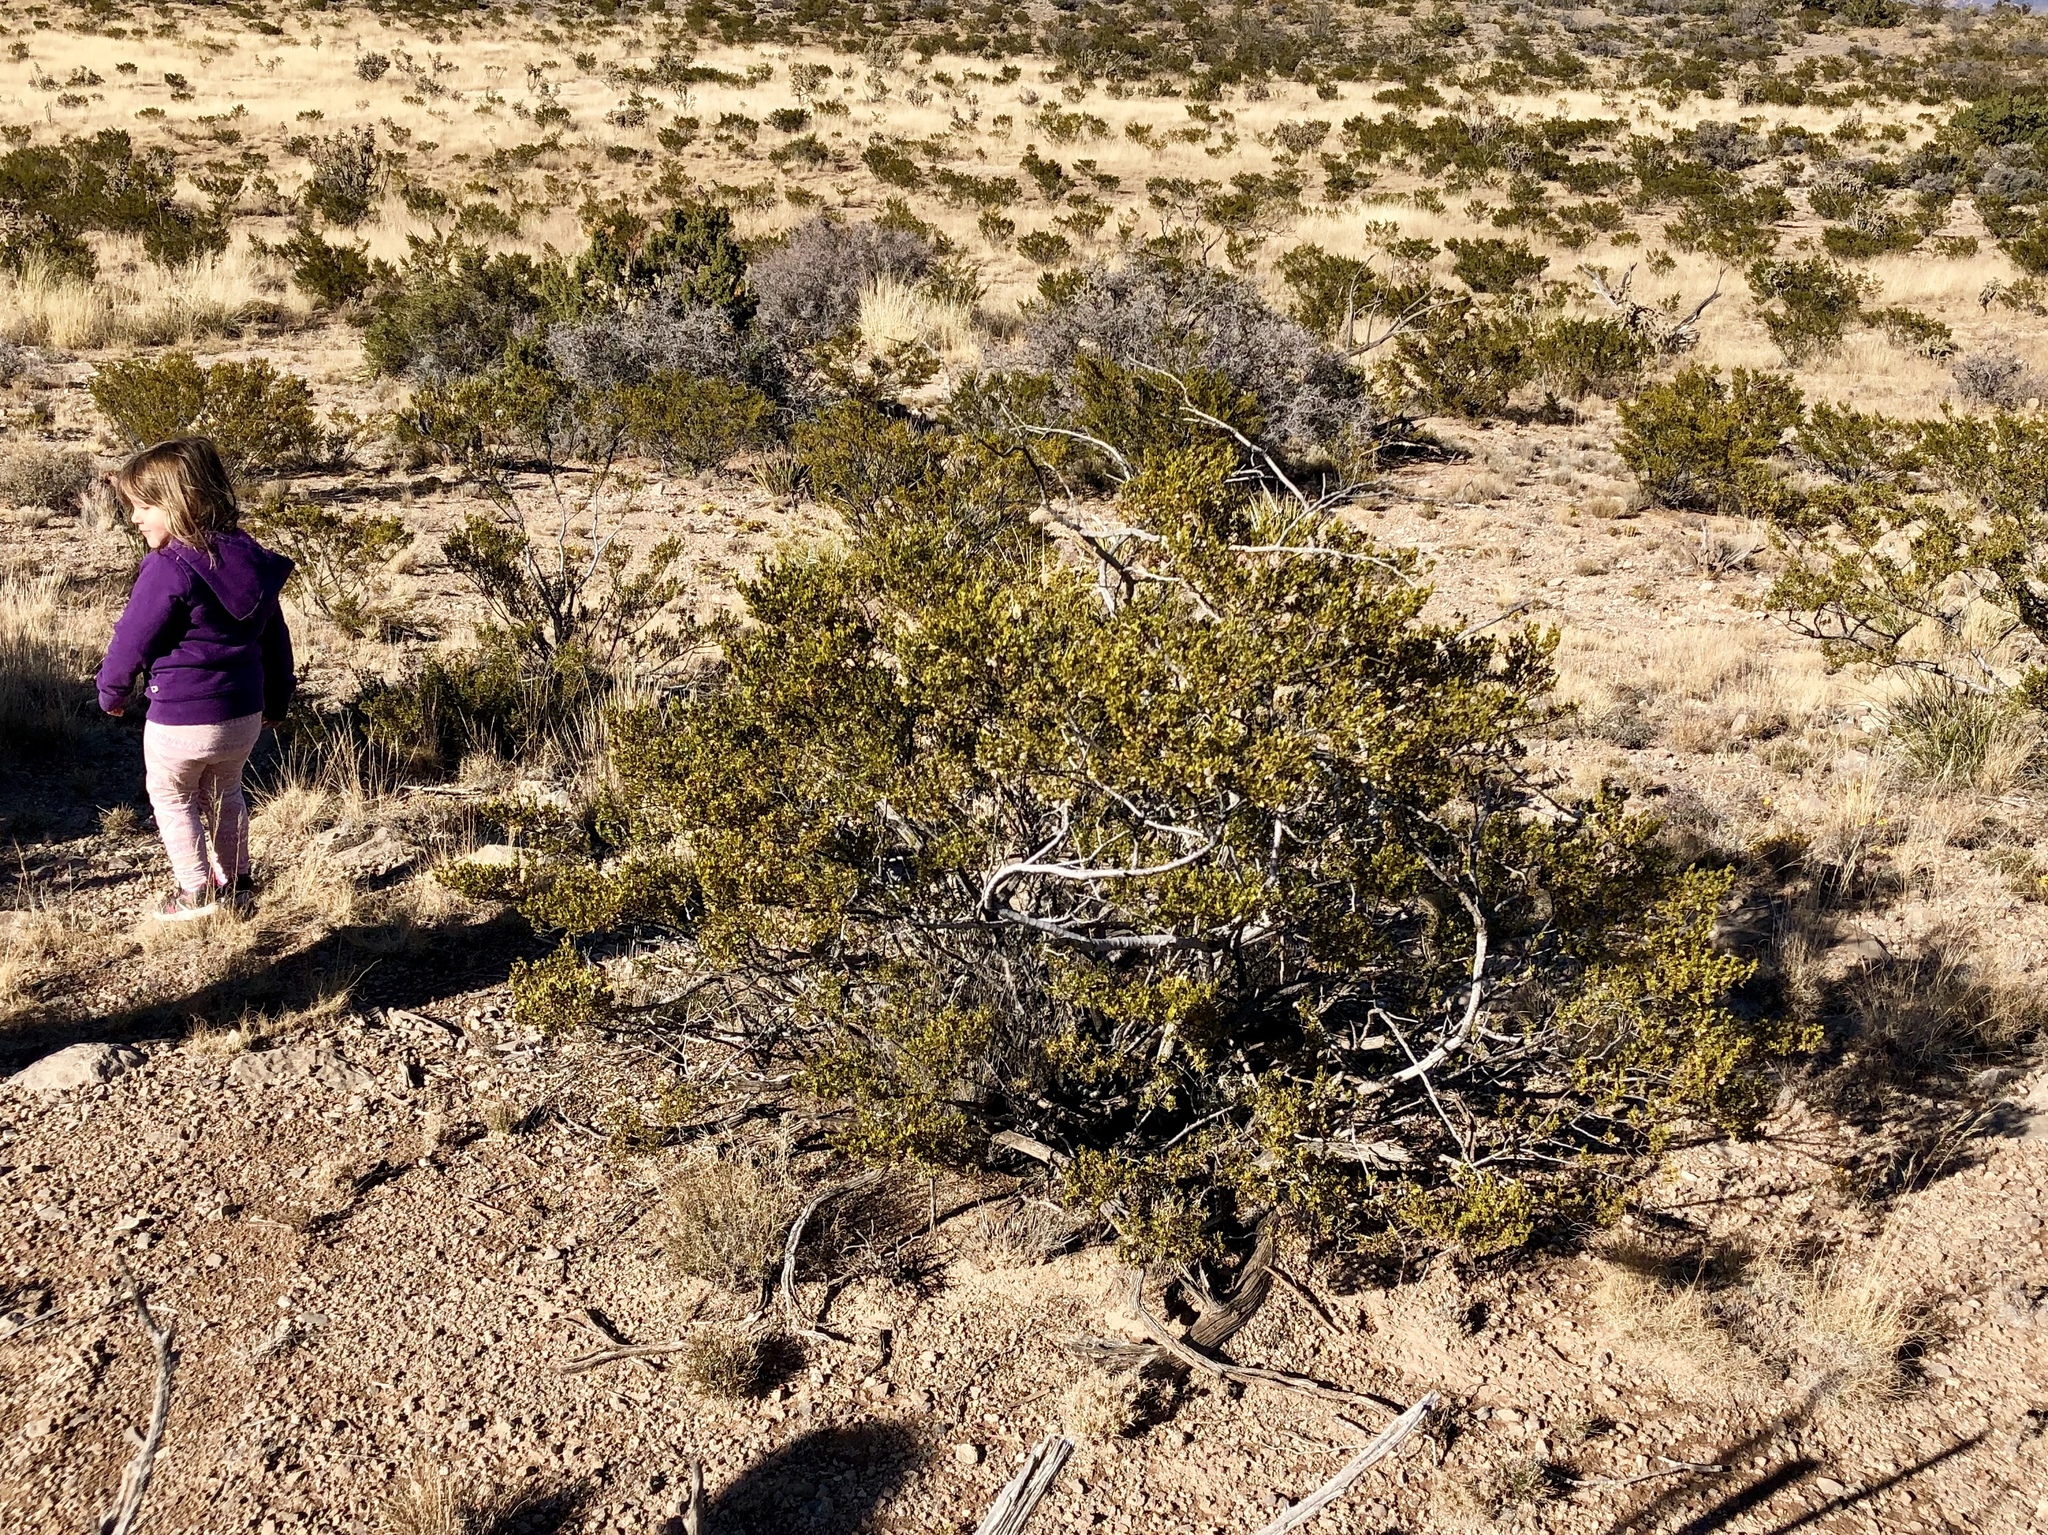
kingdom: Plantae
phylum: Tracheophyta
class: Magnoliopsida
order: Zygophyllales
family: Zygophyllaceae
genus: Larrea
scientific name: Larrea tridentata
